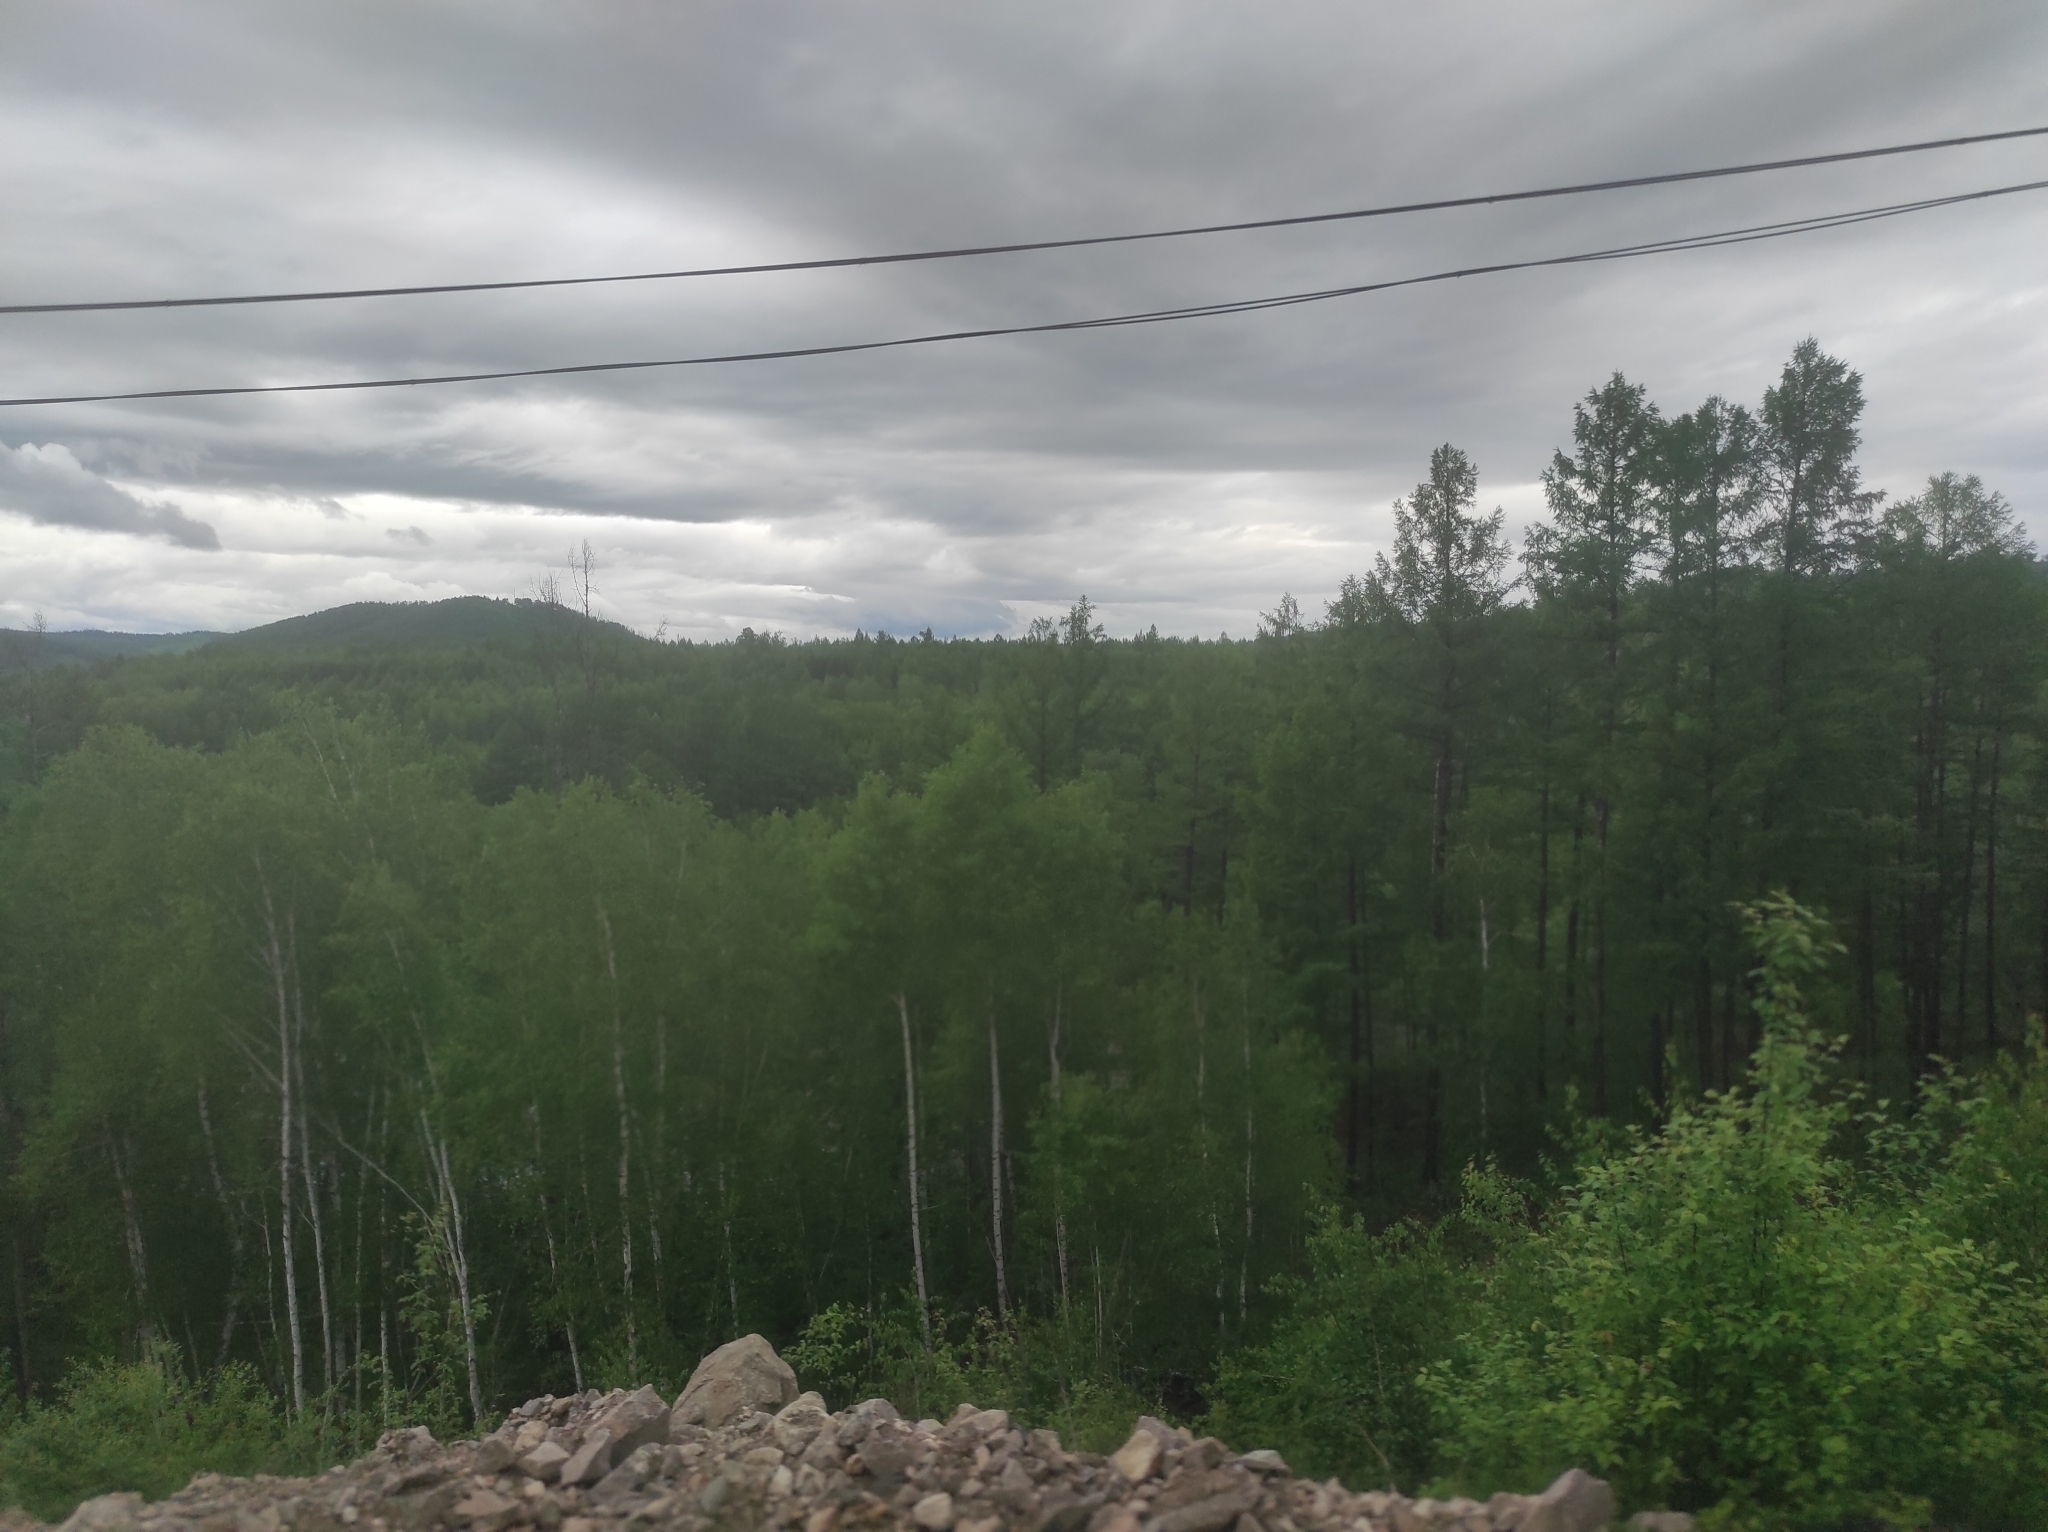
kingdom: Plantae
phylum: Tracheophyta
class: Pinopsida
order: Pinales
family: Pinaceae
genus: Larix
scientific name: Larix gmelinii
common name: Dahurian larch
